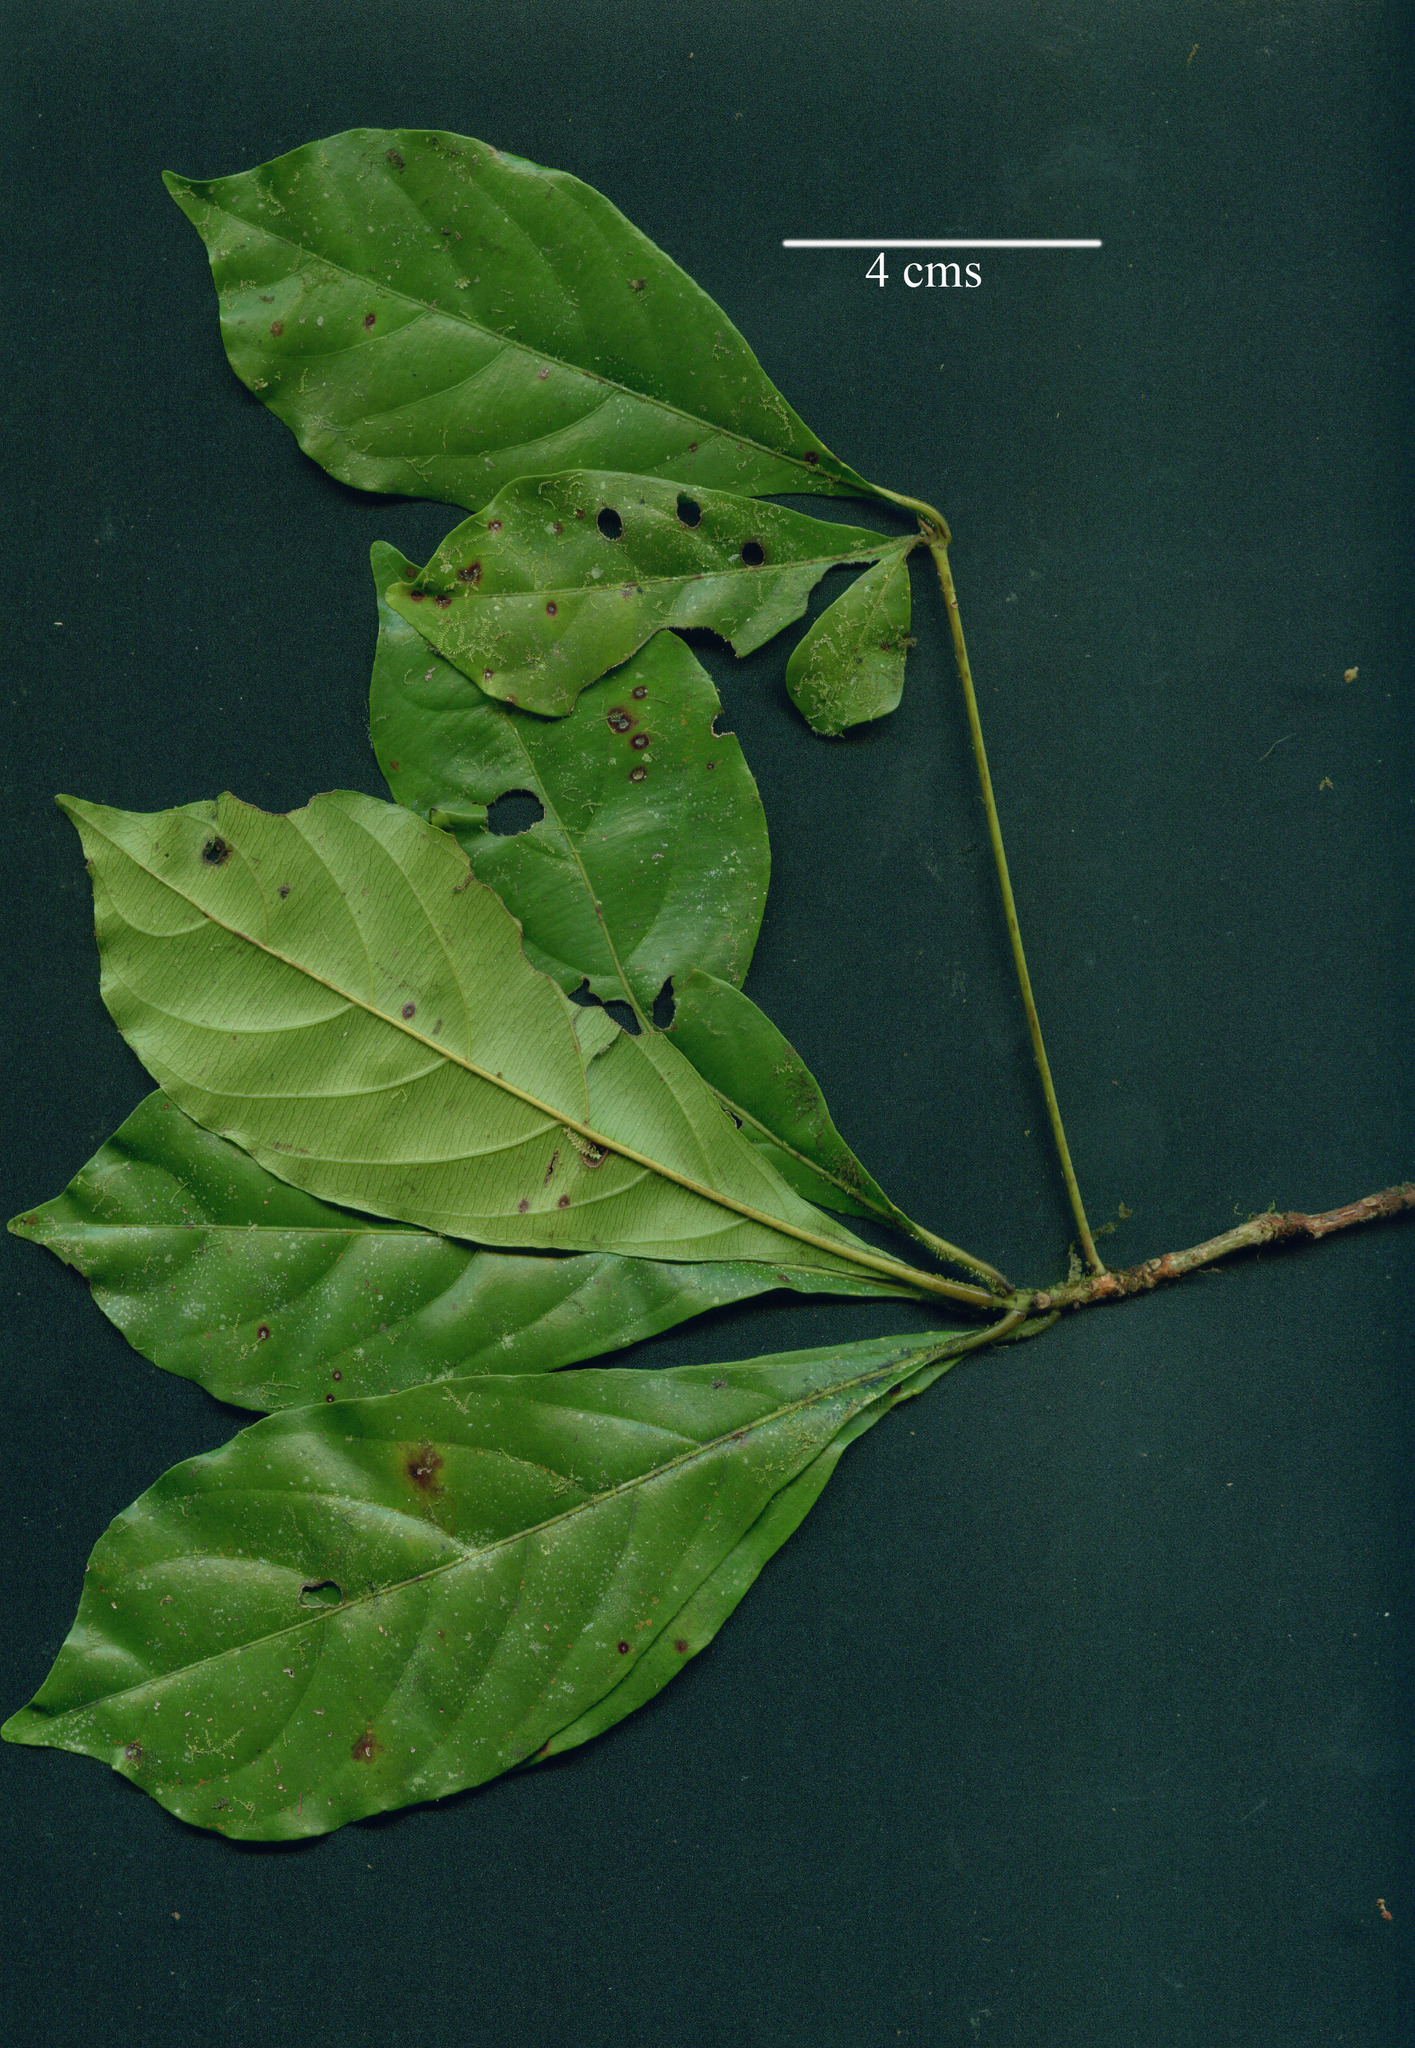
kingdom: Plantae
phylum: Tracheophyta
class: Magnoliopsida
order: Myrtales
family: Combretaceae
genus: Terminalia
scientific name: Terminalia amazonica
